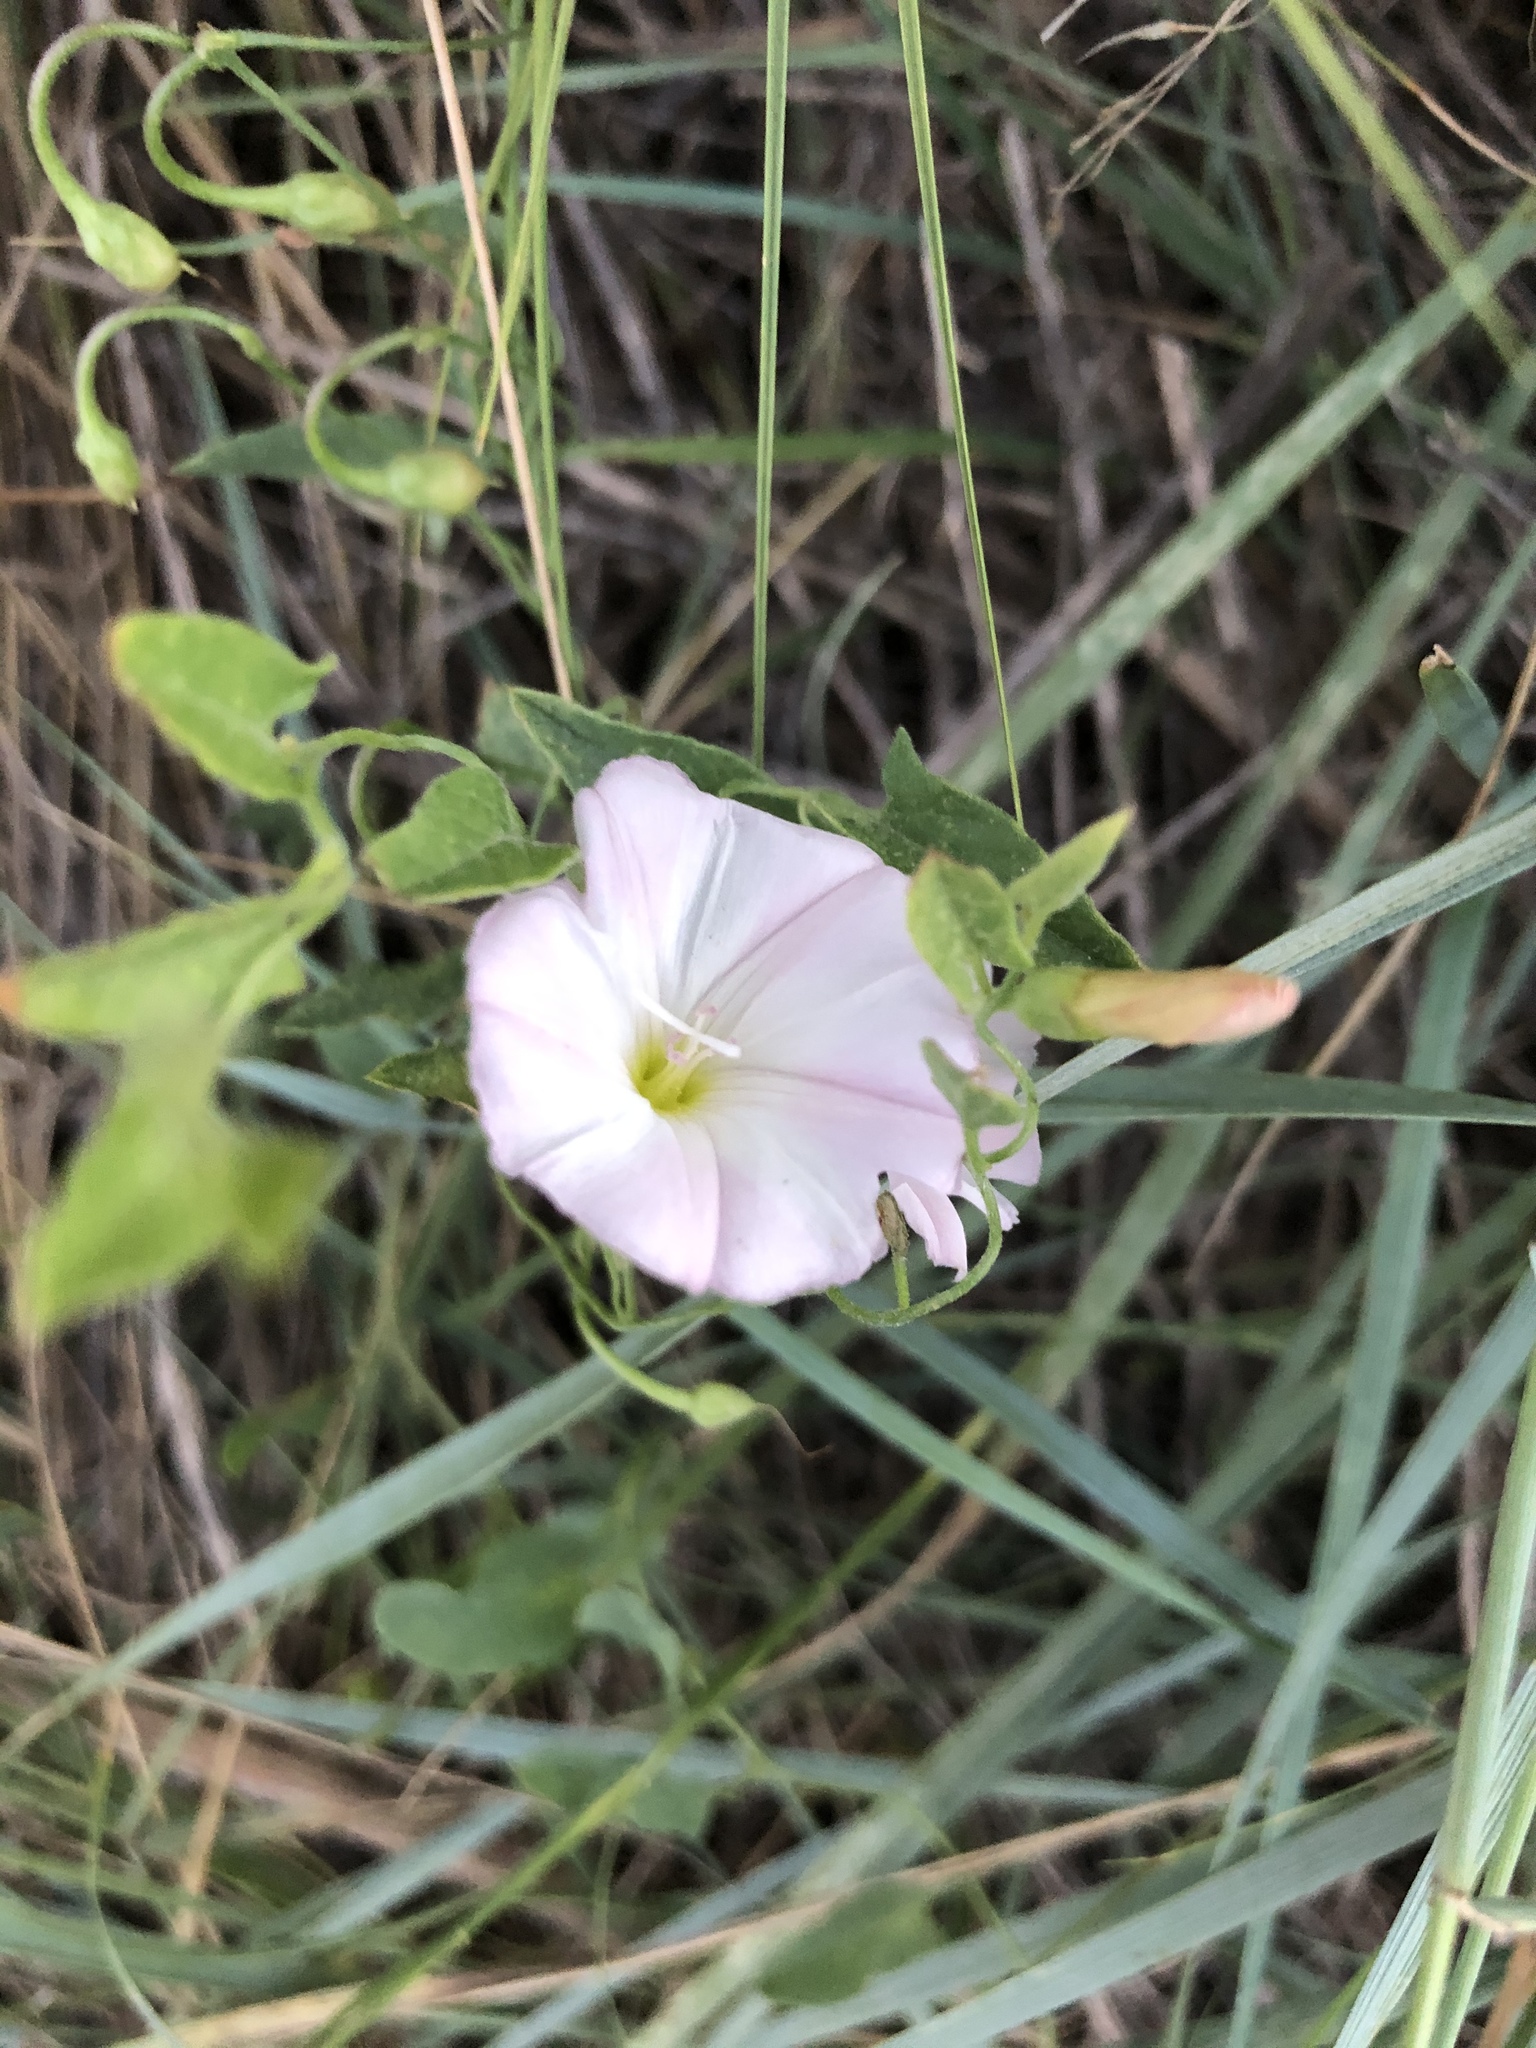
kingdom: Plantae
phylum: Tracheophyta
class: Magnoliopsida
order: Solanales
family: Convolvulaceae
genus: Convolvulus
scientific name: Convolvulus arvensis
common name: Field bindweed
